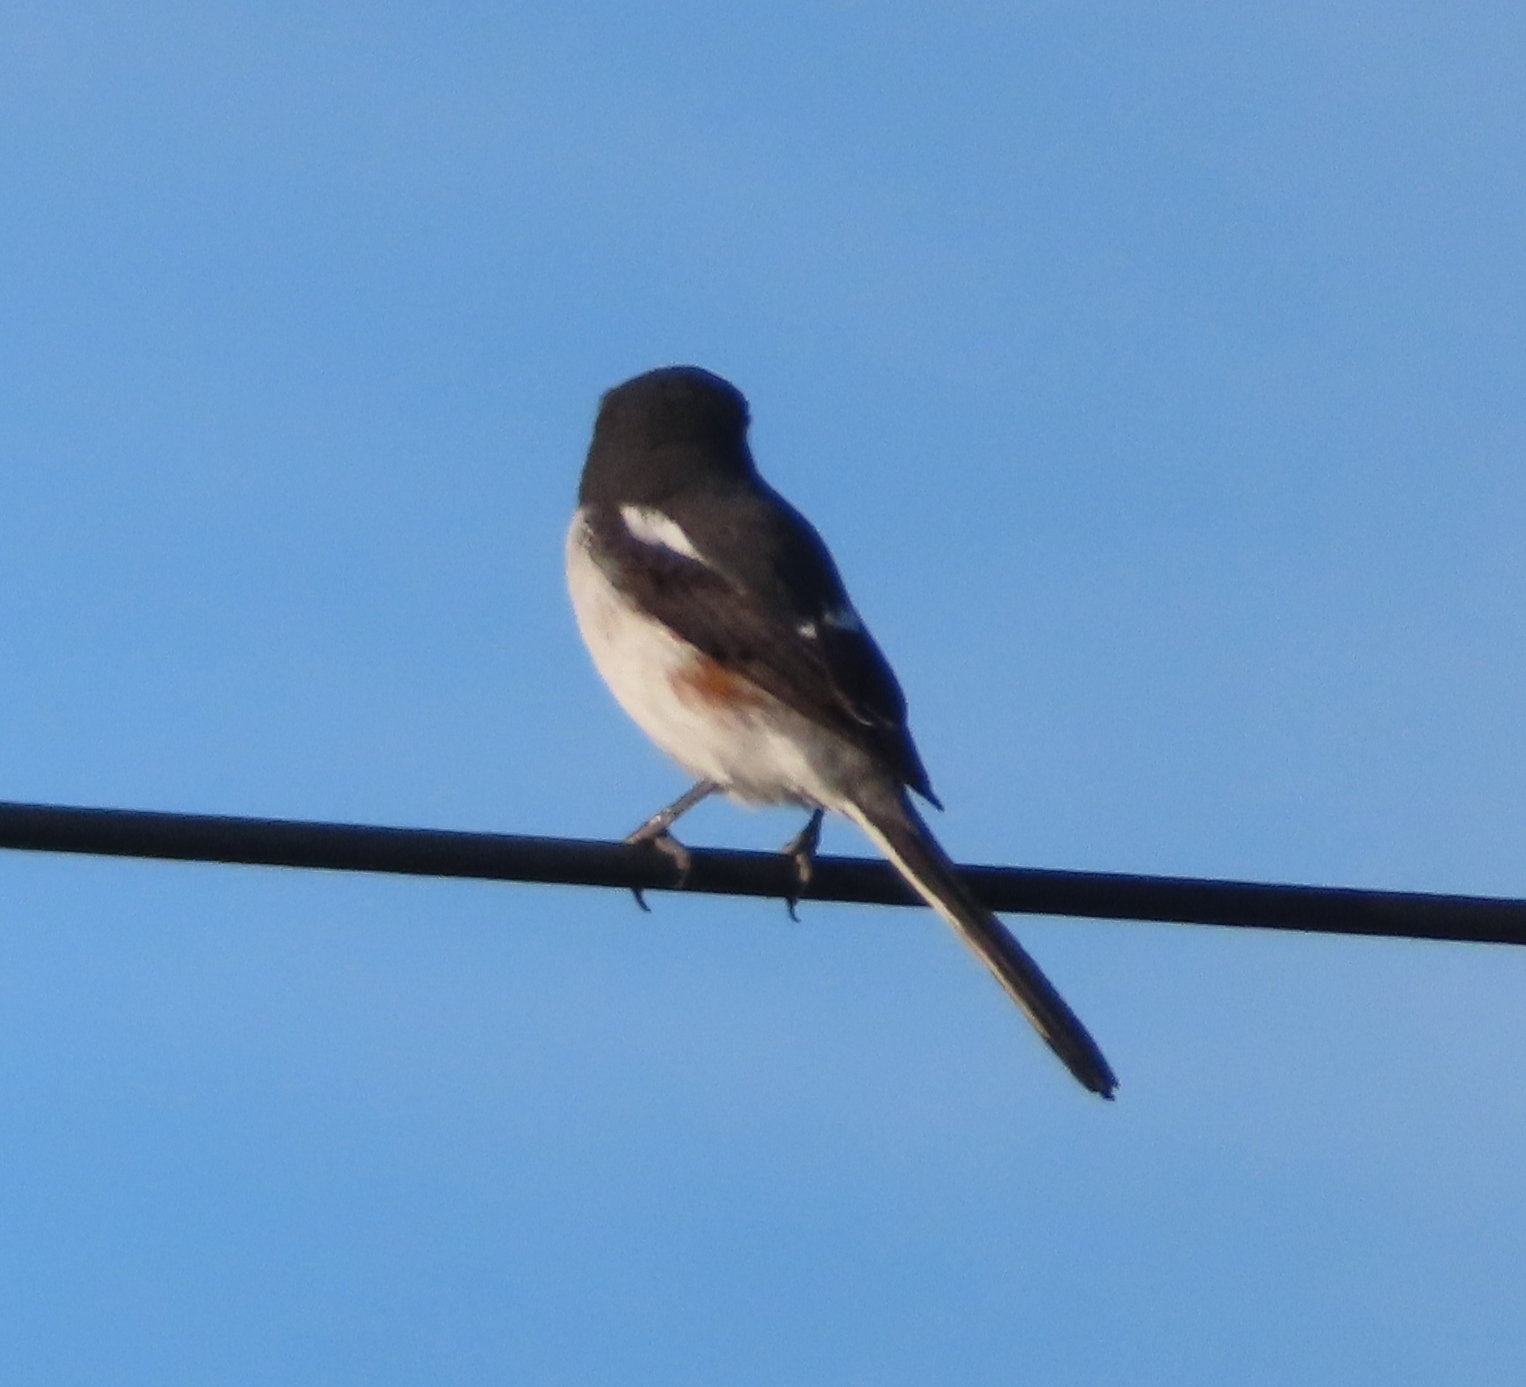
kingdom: Animalia
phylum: Chordata
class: Aves
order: Passeriformes
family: Laniidae
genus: Lanius
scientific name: Lanius collaris
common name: Southern fiscal
